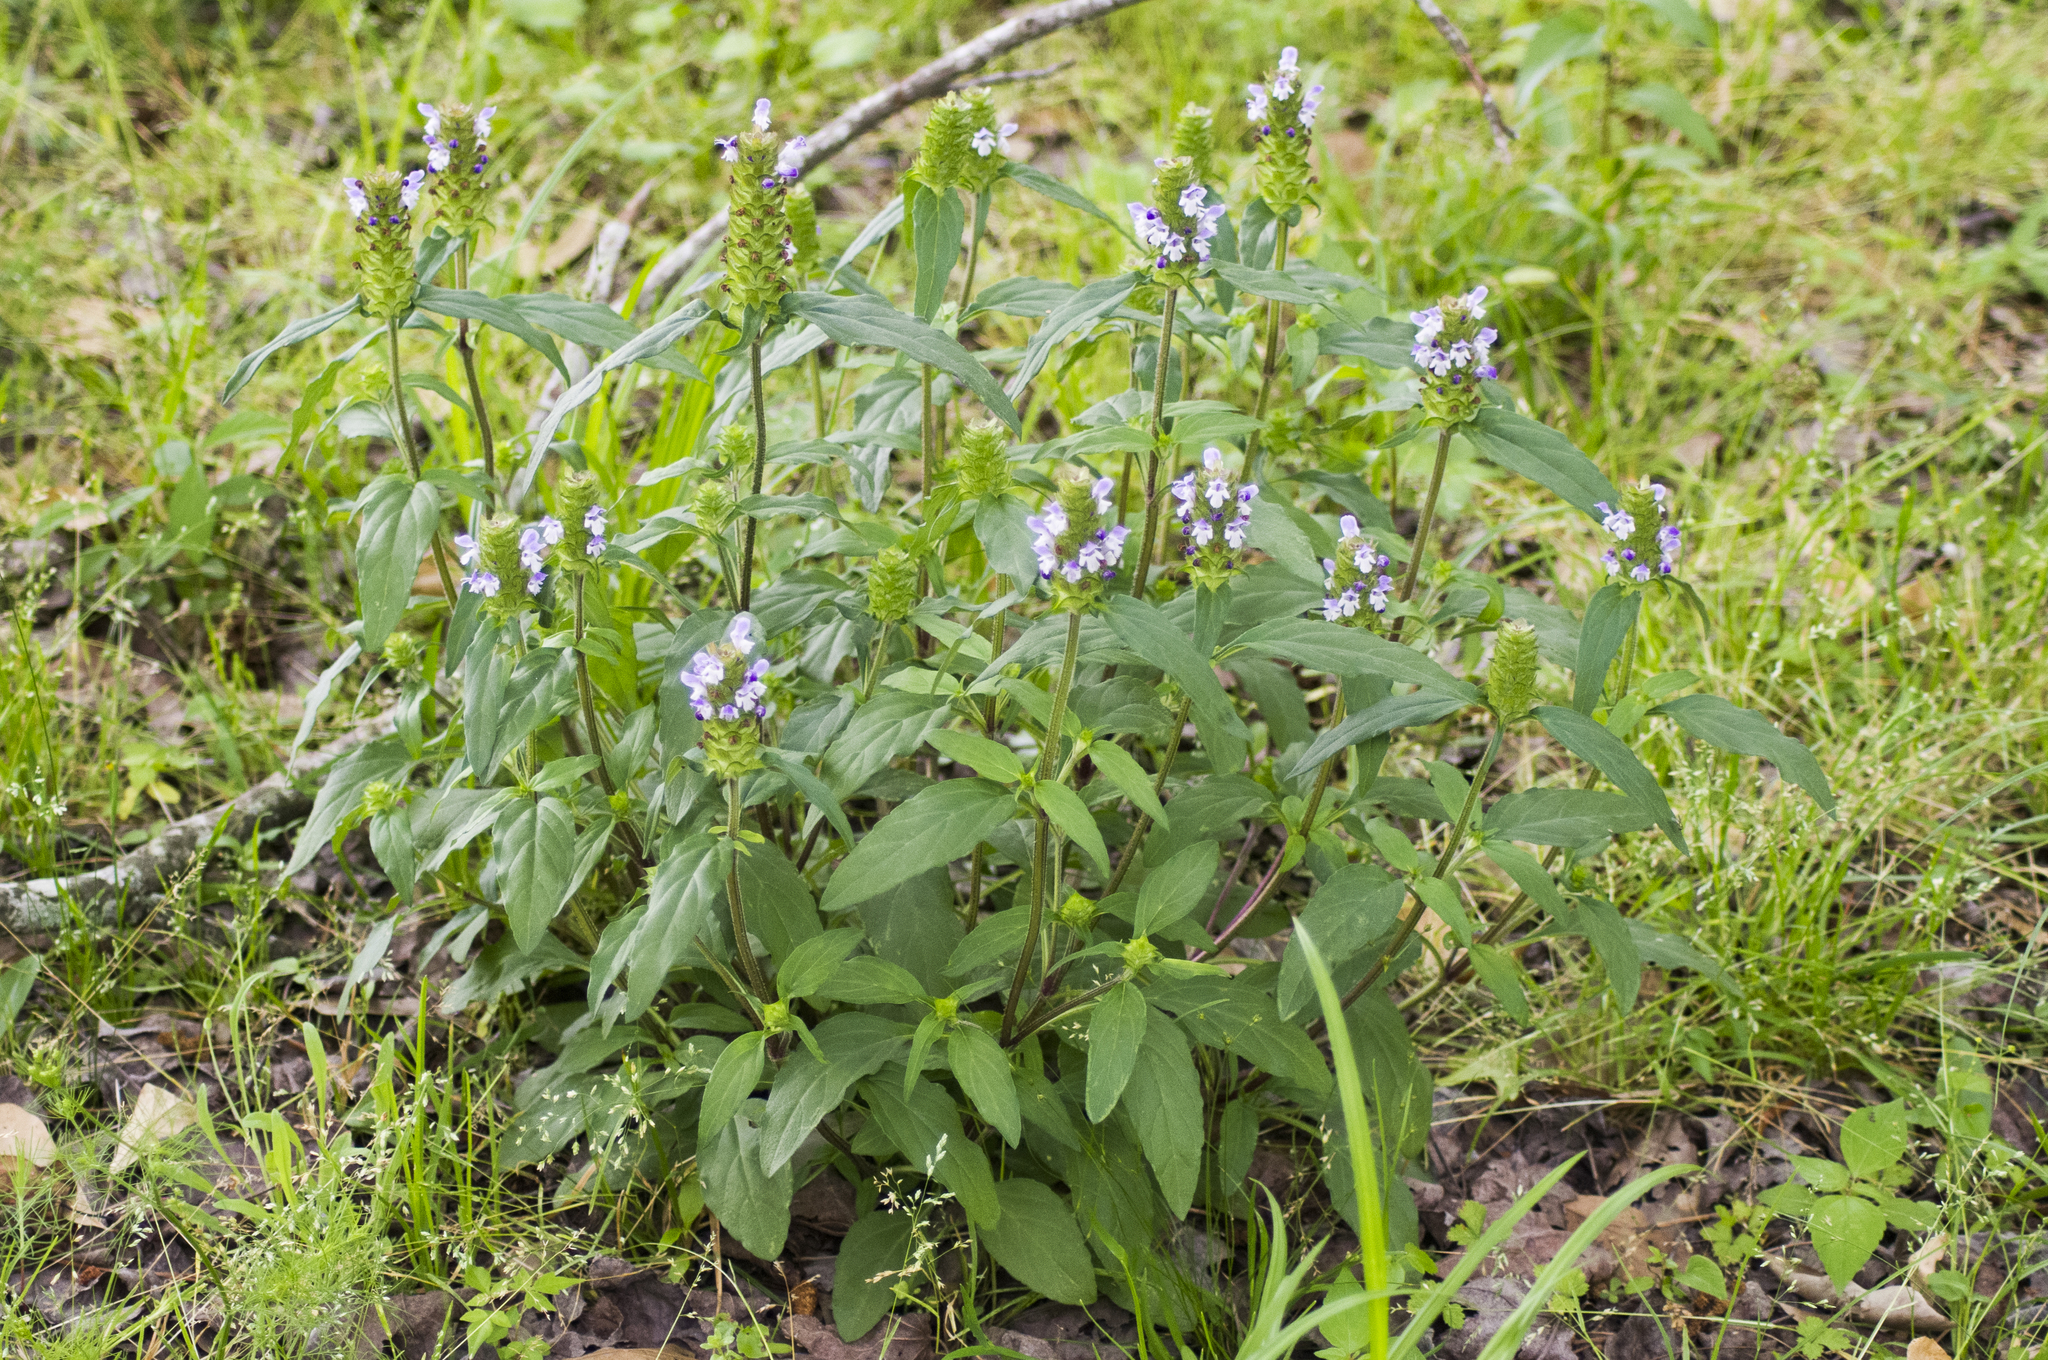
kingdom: Plantae
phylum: Tracheophyta
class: Magnoliopsida
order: Lamiales
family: Lamiaceae
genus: Prunella
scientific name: Prunella vulgaris
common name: Heal-all
